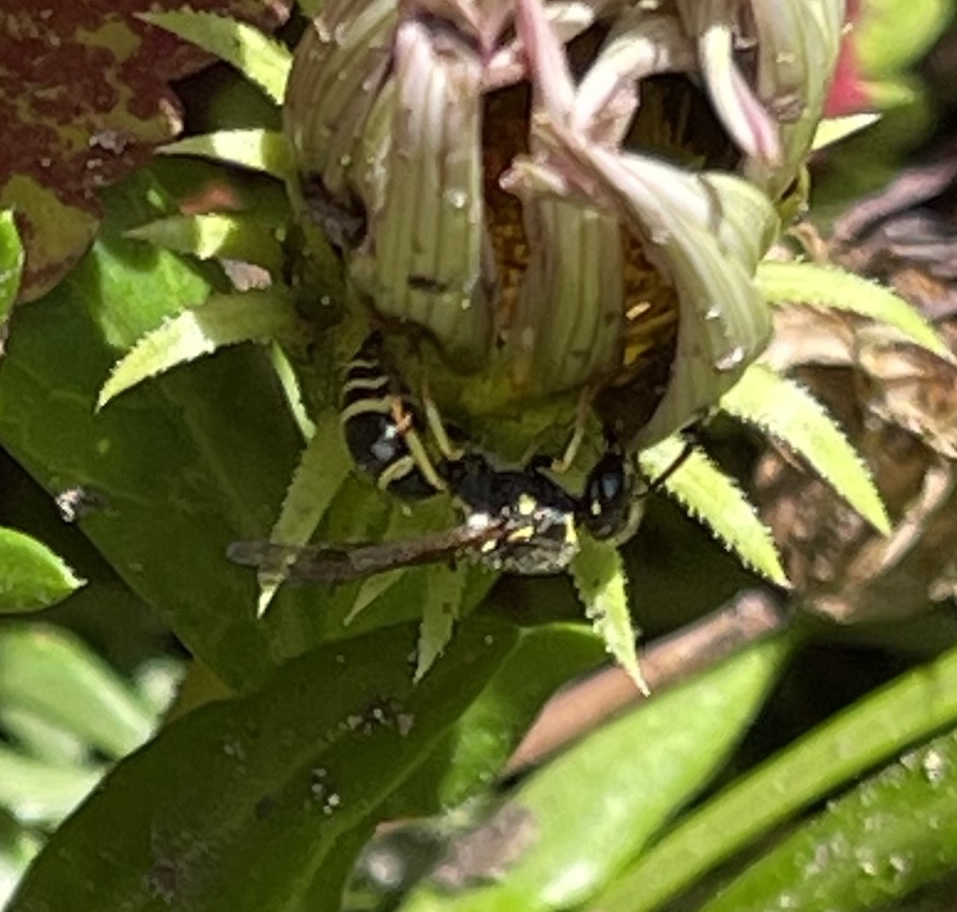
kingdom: Animalia
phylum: Arthropoda
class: Insecta
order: Hymenoptera
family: Vespidae
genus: Ancistrocerus
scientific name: Ancistrocerus
